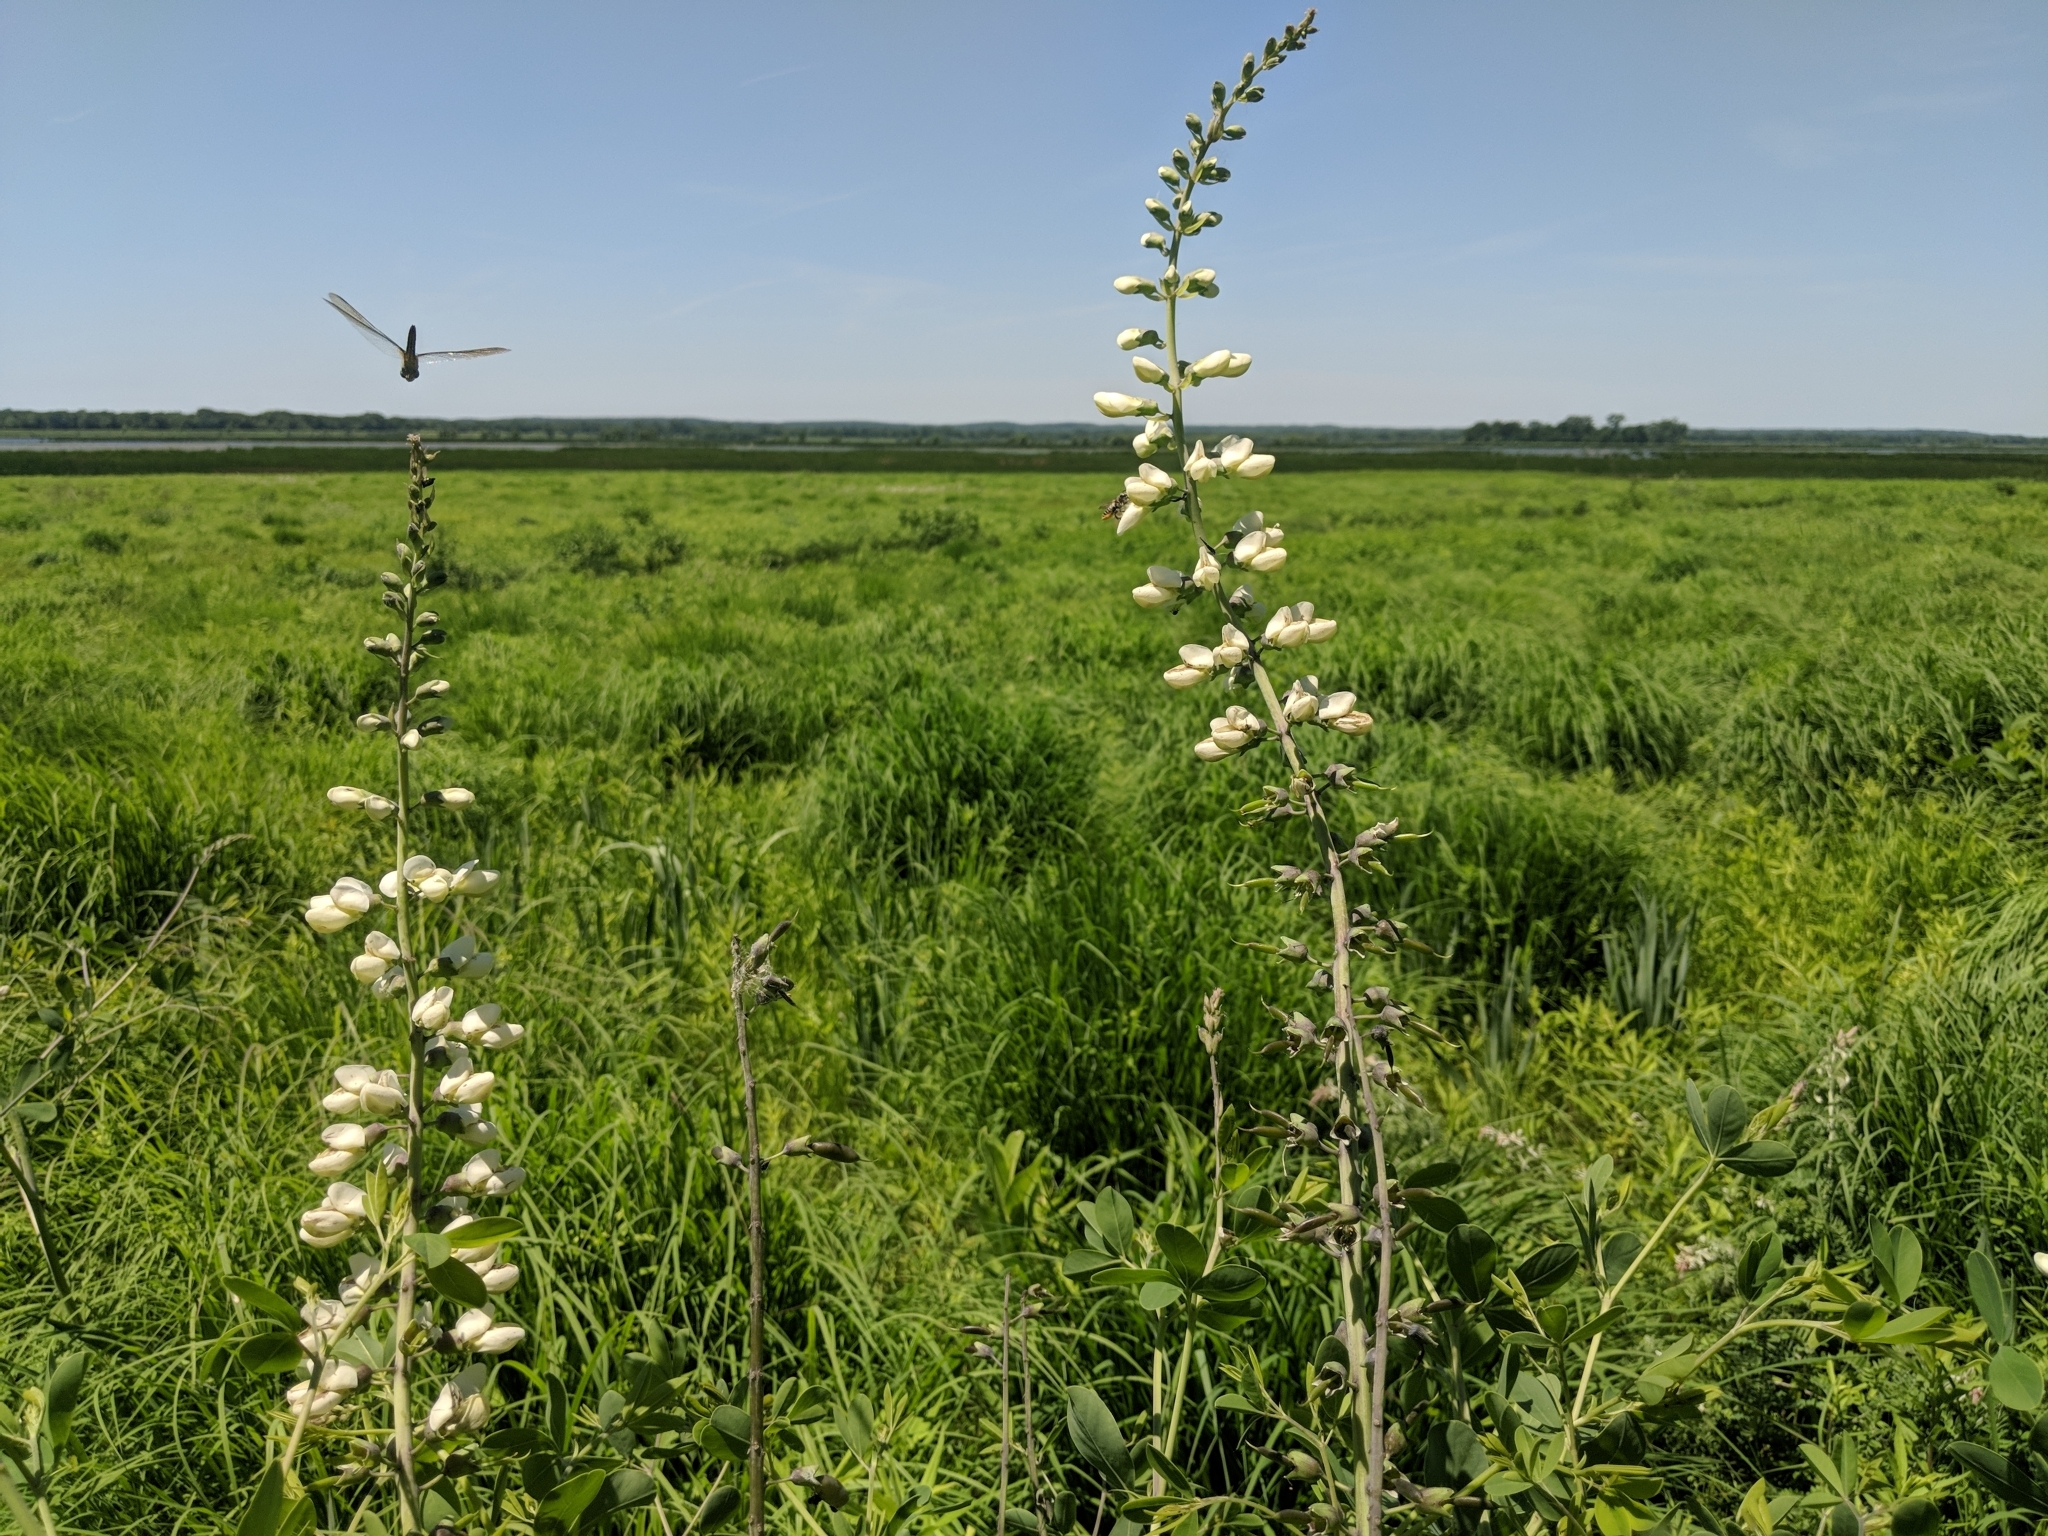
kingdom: Plantae
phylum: Tracheophyta
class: Magnoliopsida
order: Fabales
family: Fabaceae
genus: Baptisia
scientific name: Baptisia alba
